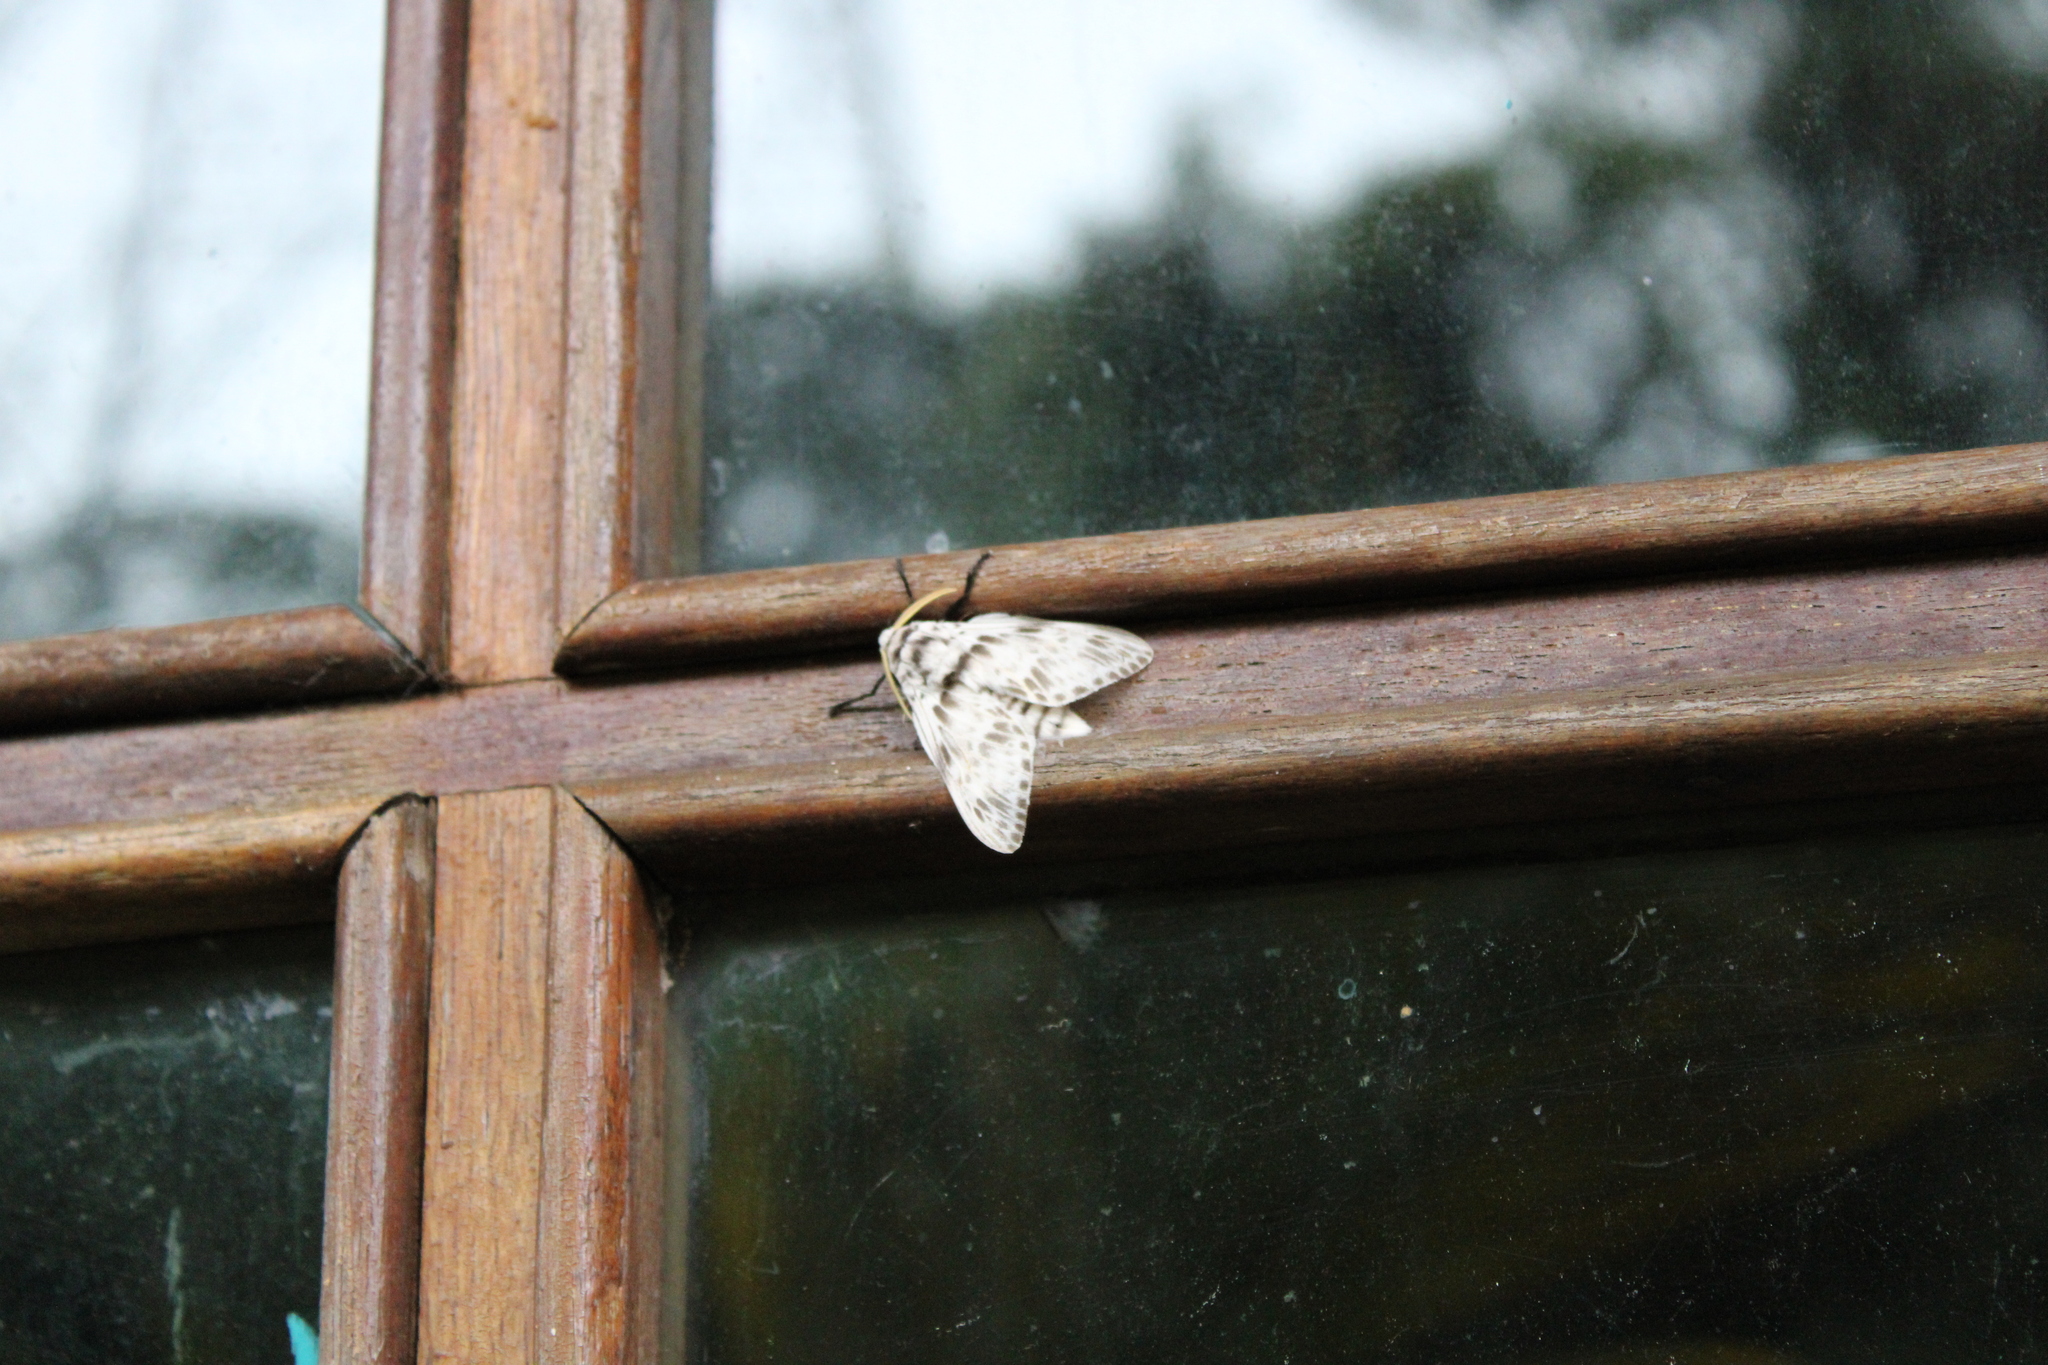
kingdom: Animalia
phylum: Arthropoda
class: Insecta
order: Lepidoptera
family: Megalopygidae
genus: Podalia
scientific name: Podalia albescens
